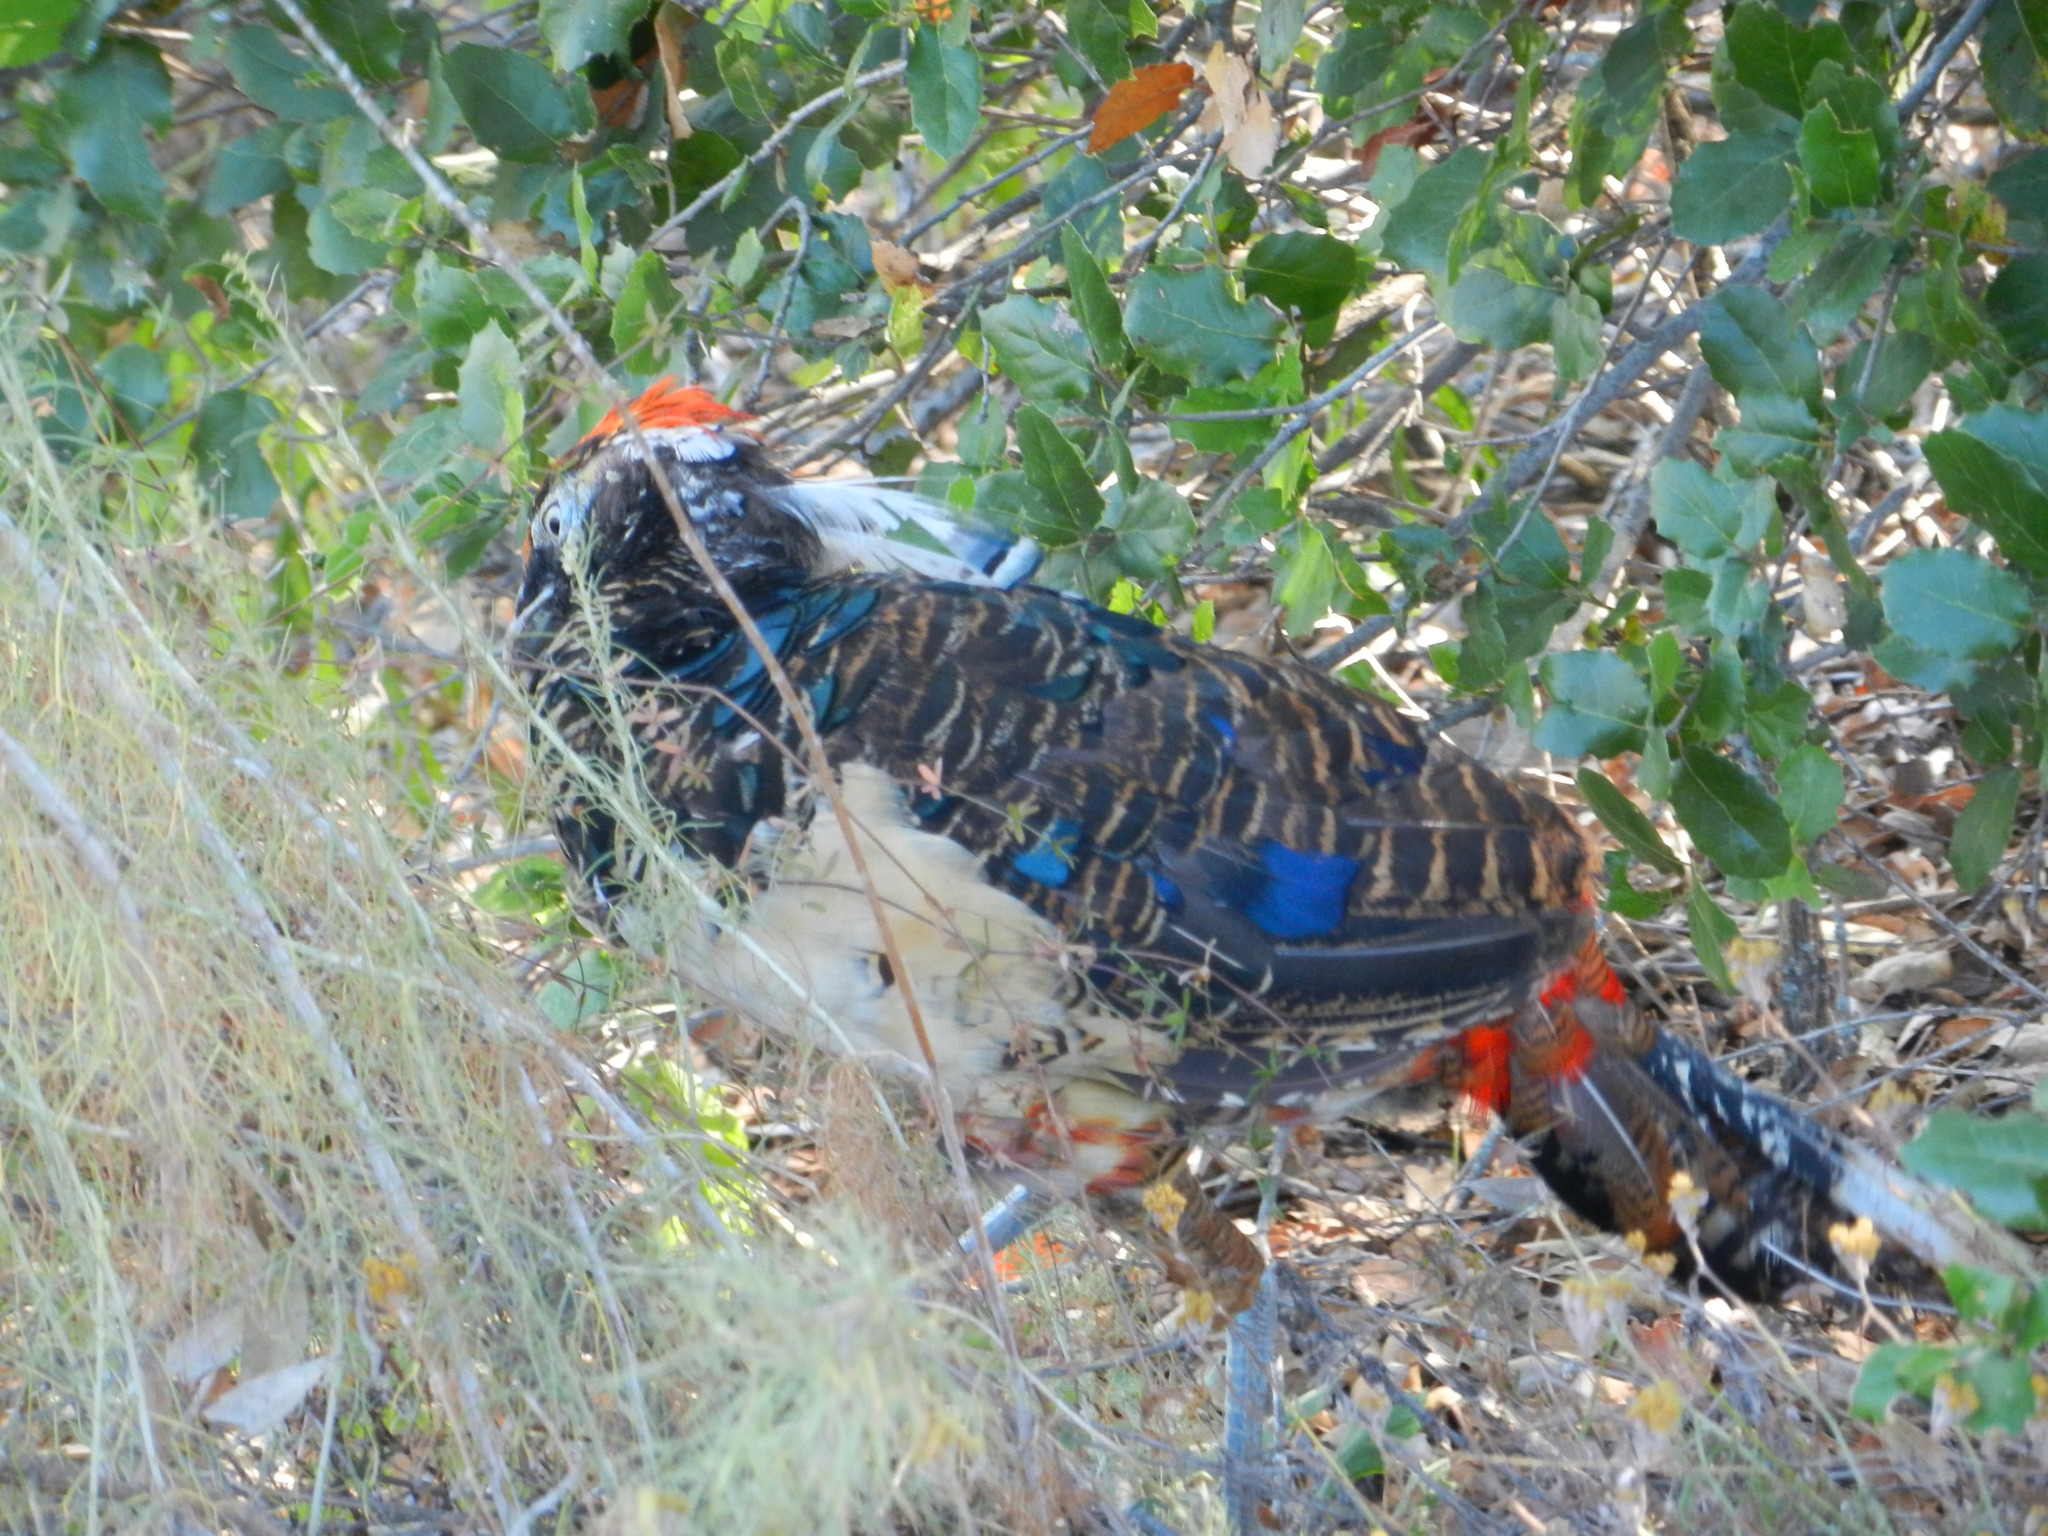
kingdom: Animalia
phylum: Chordata
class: Aves
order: Galliformes
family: Phasianidae
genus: Chrysolophus
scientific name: Chrysolophus amherstiae
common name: Lady amherst's pheasant
